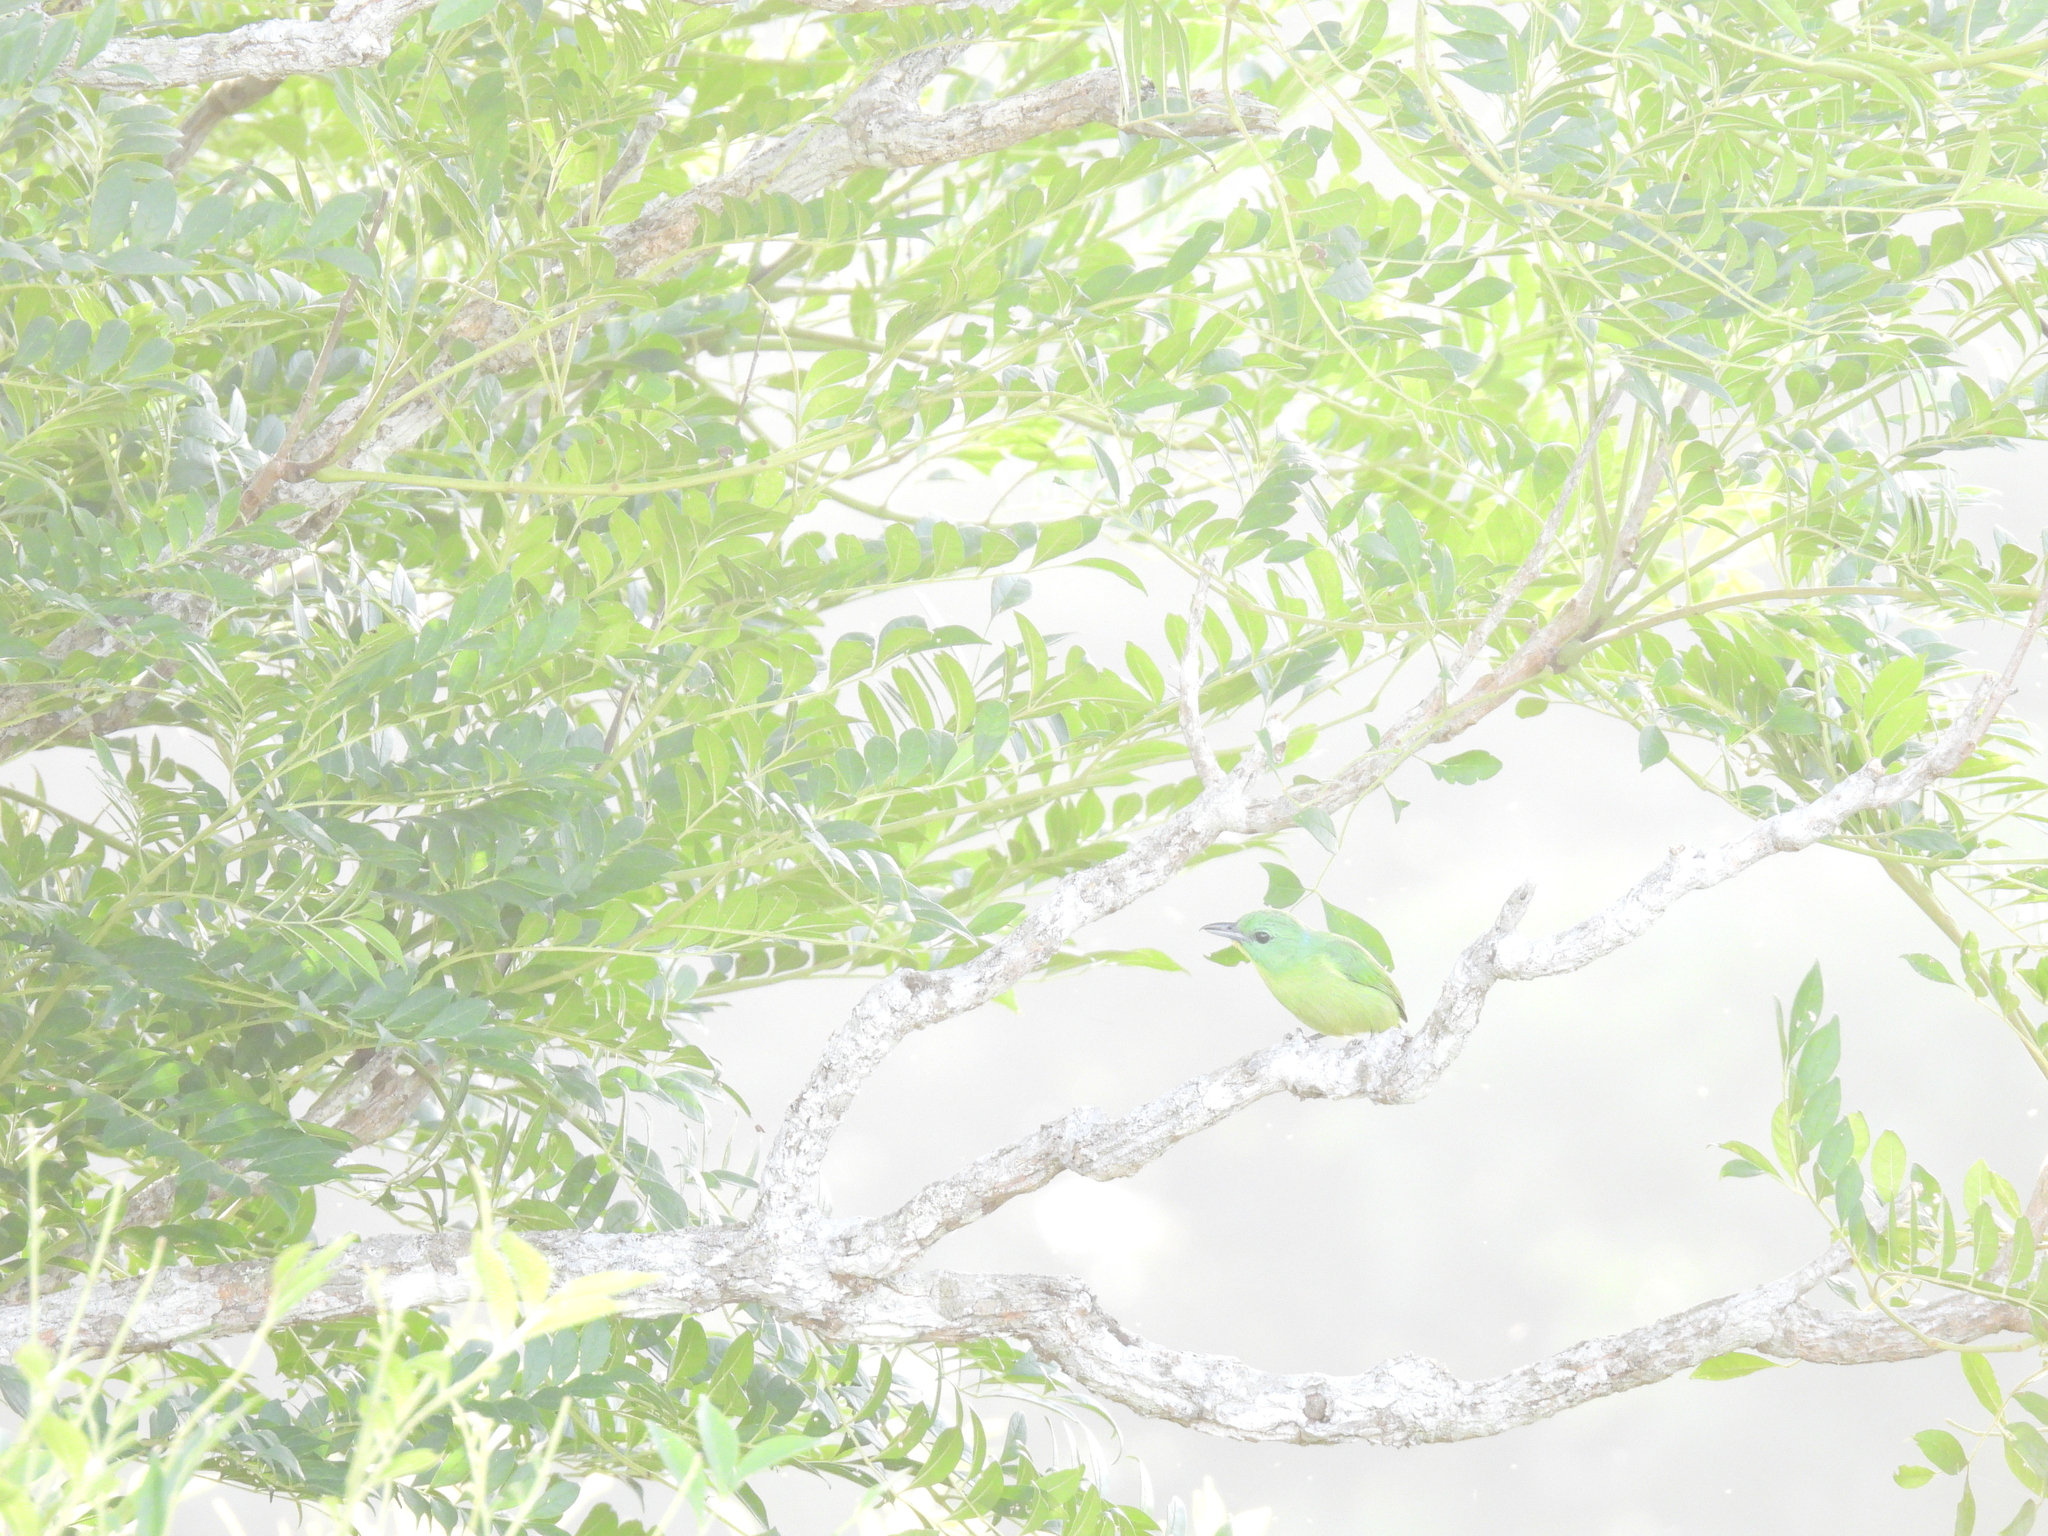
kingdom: Animalia
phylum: Chordata
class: Aves
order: Passeriformes
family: Vireonidae
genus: Vireolanius
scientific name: Vireolanius pulchellus
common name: Green shrike-vireo
